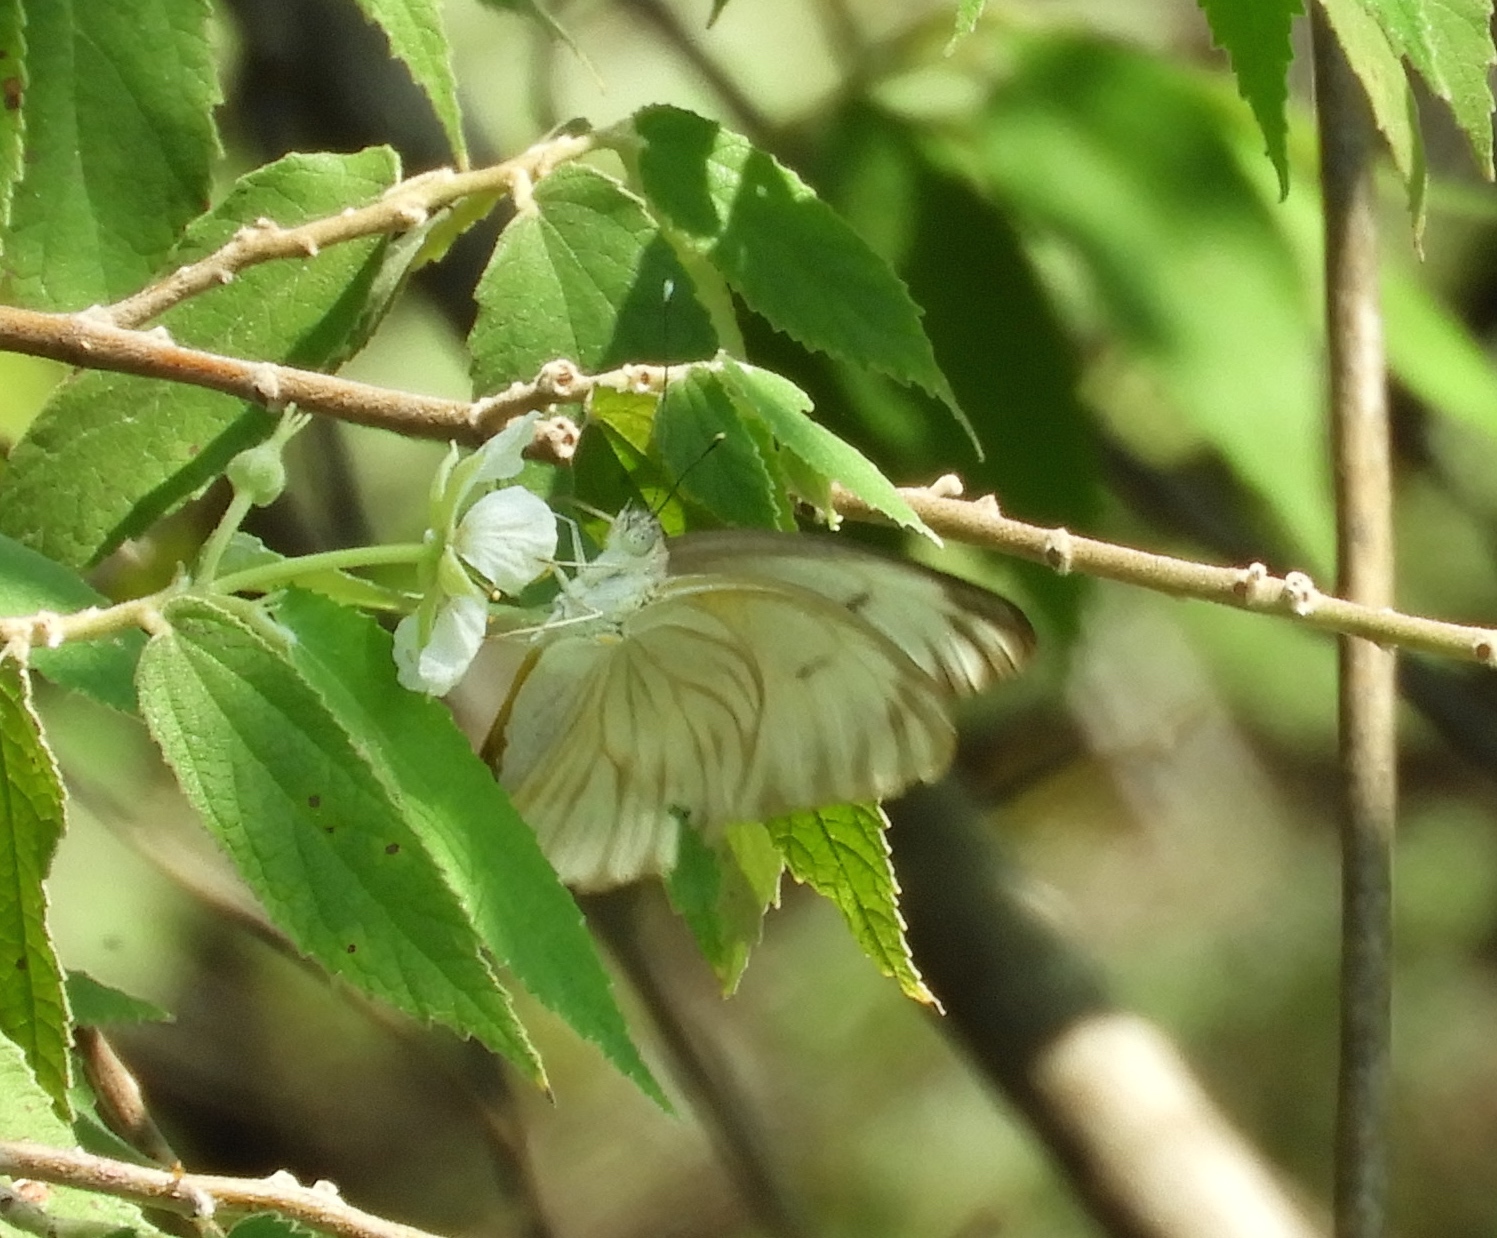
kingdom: Animalia
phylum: Arthropoda
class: Insecta
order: Lepidoptera
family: Pieridae
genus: Ascia
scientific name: Ascia monuste
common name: Great southern white
